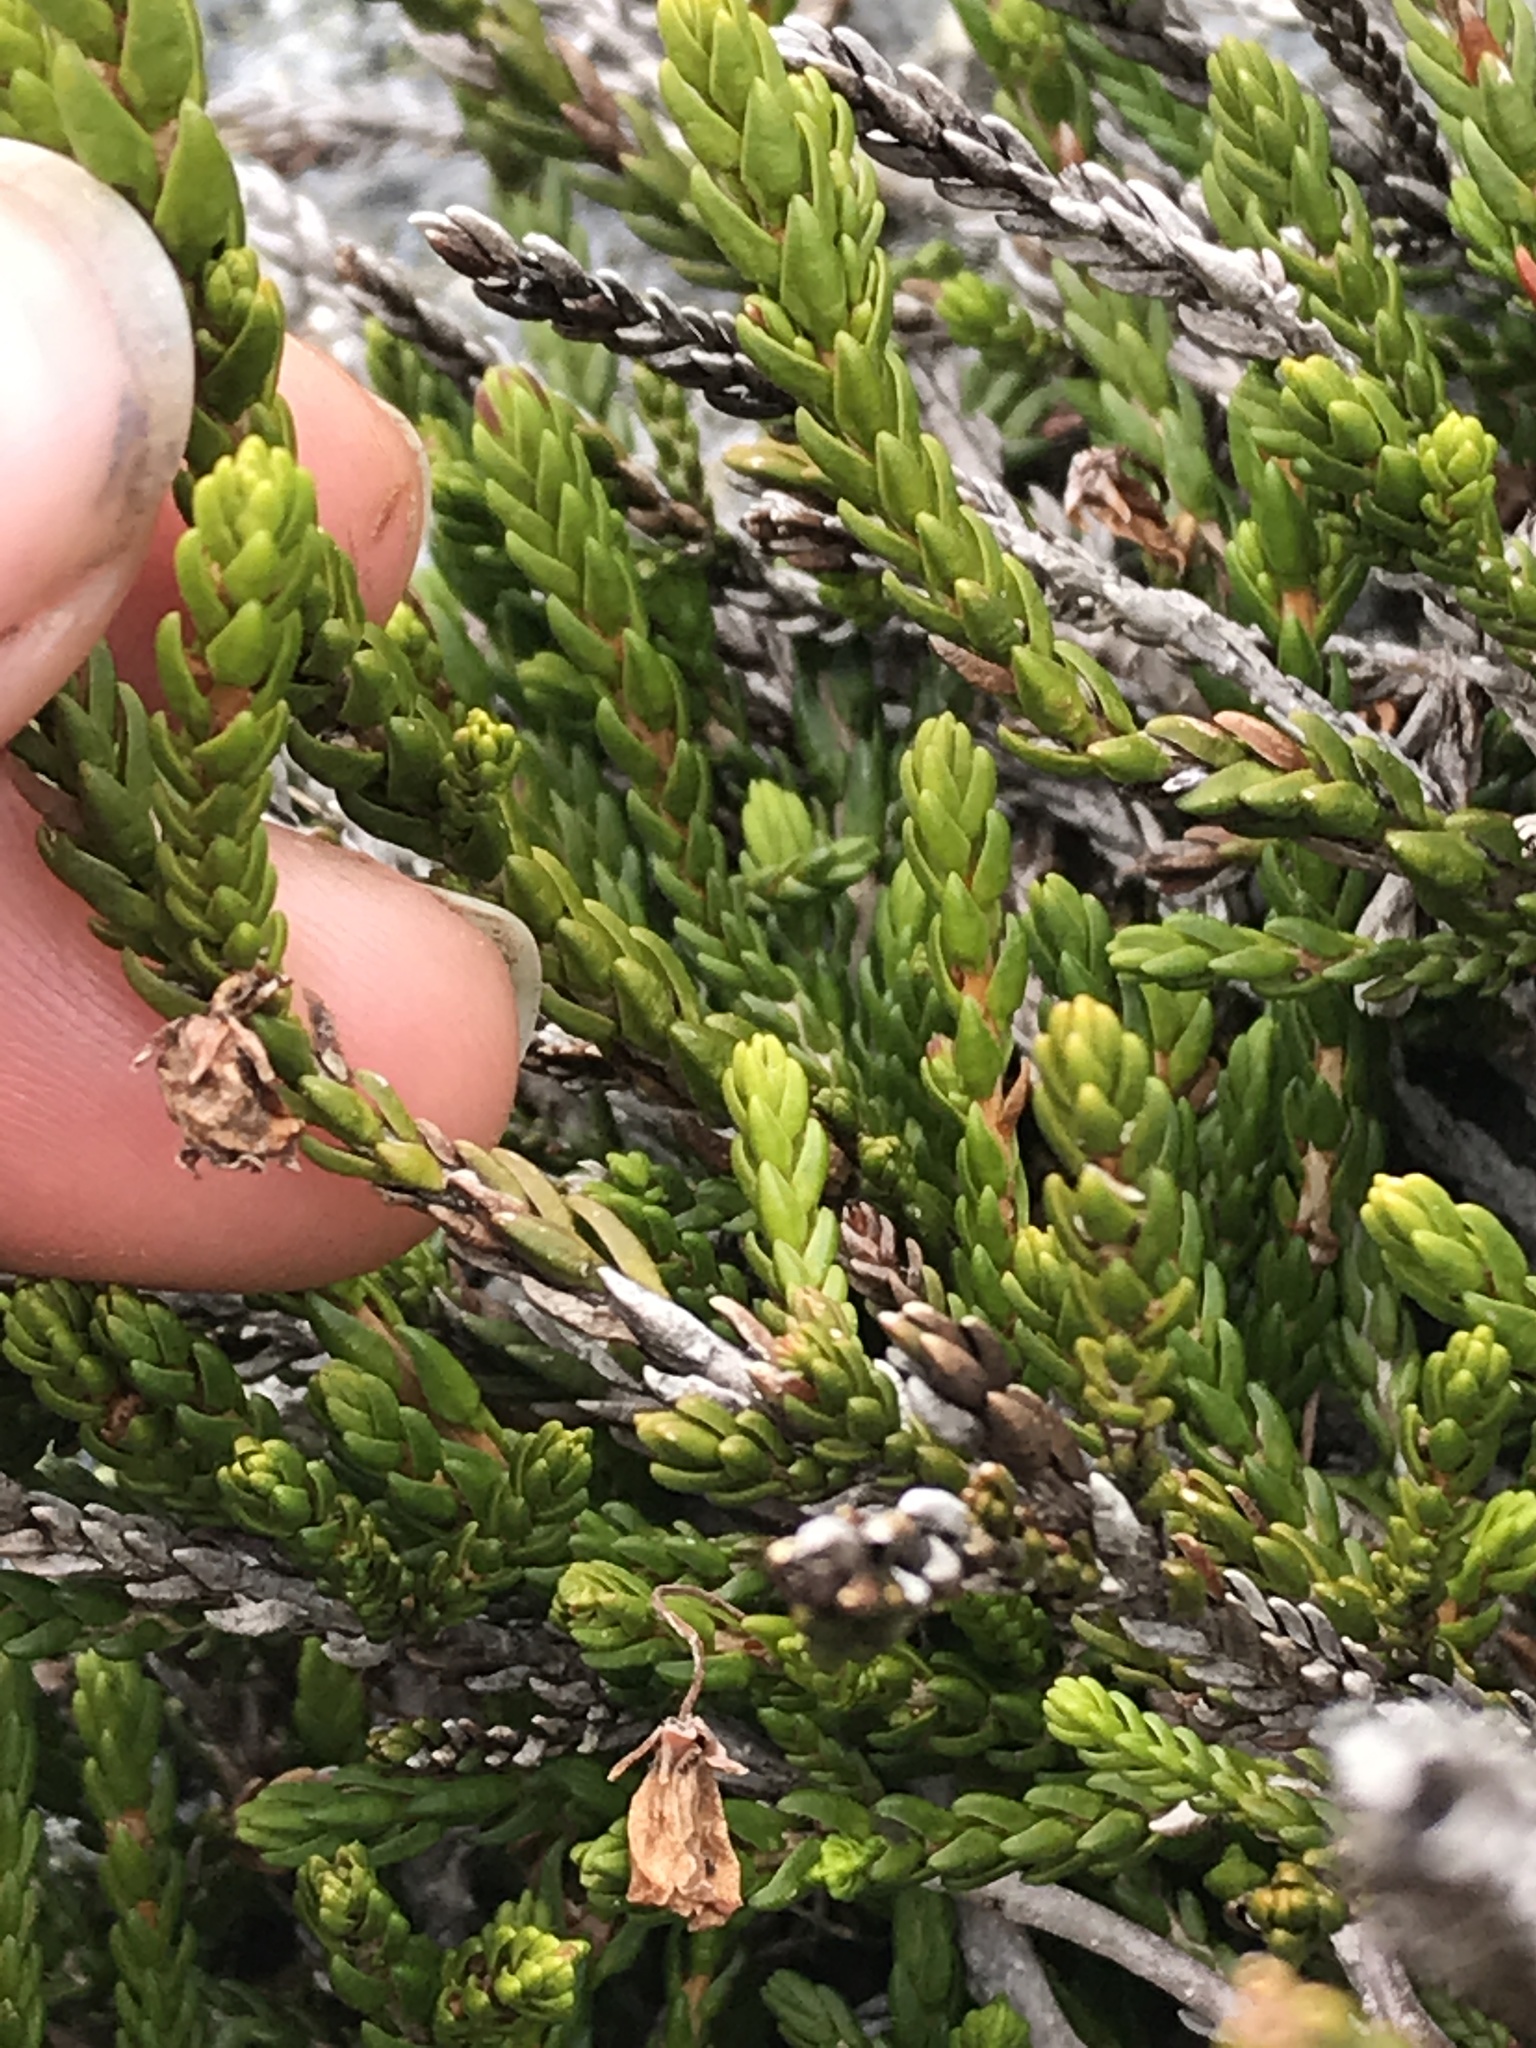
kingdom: Plantae
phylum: Tracheophyta
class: Magnoliopsida
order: Ericales
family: Ericaceae
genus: Cassiope
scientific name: Cassiope mertensiana
